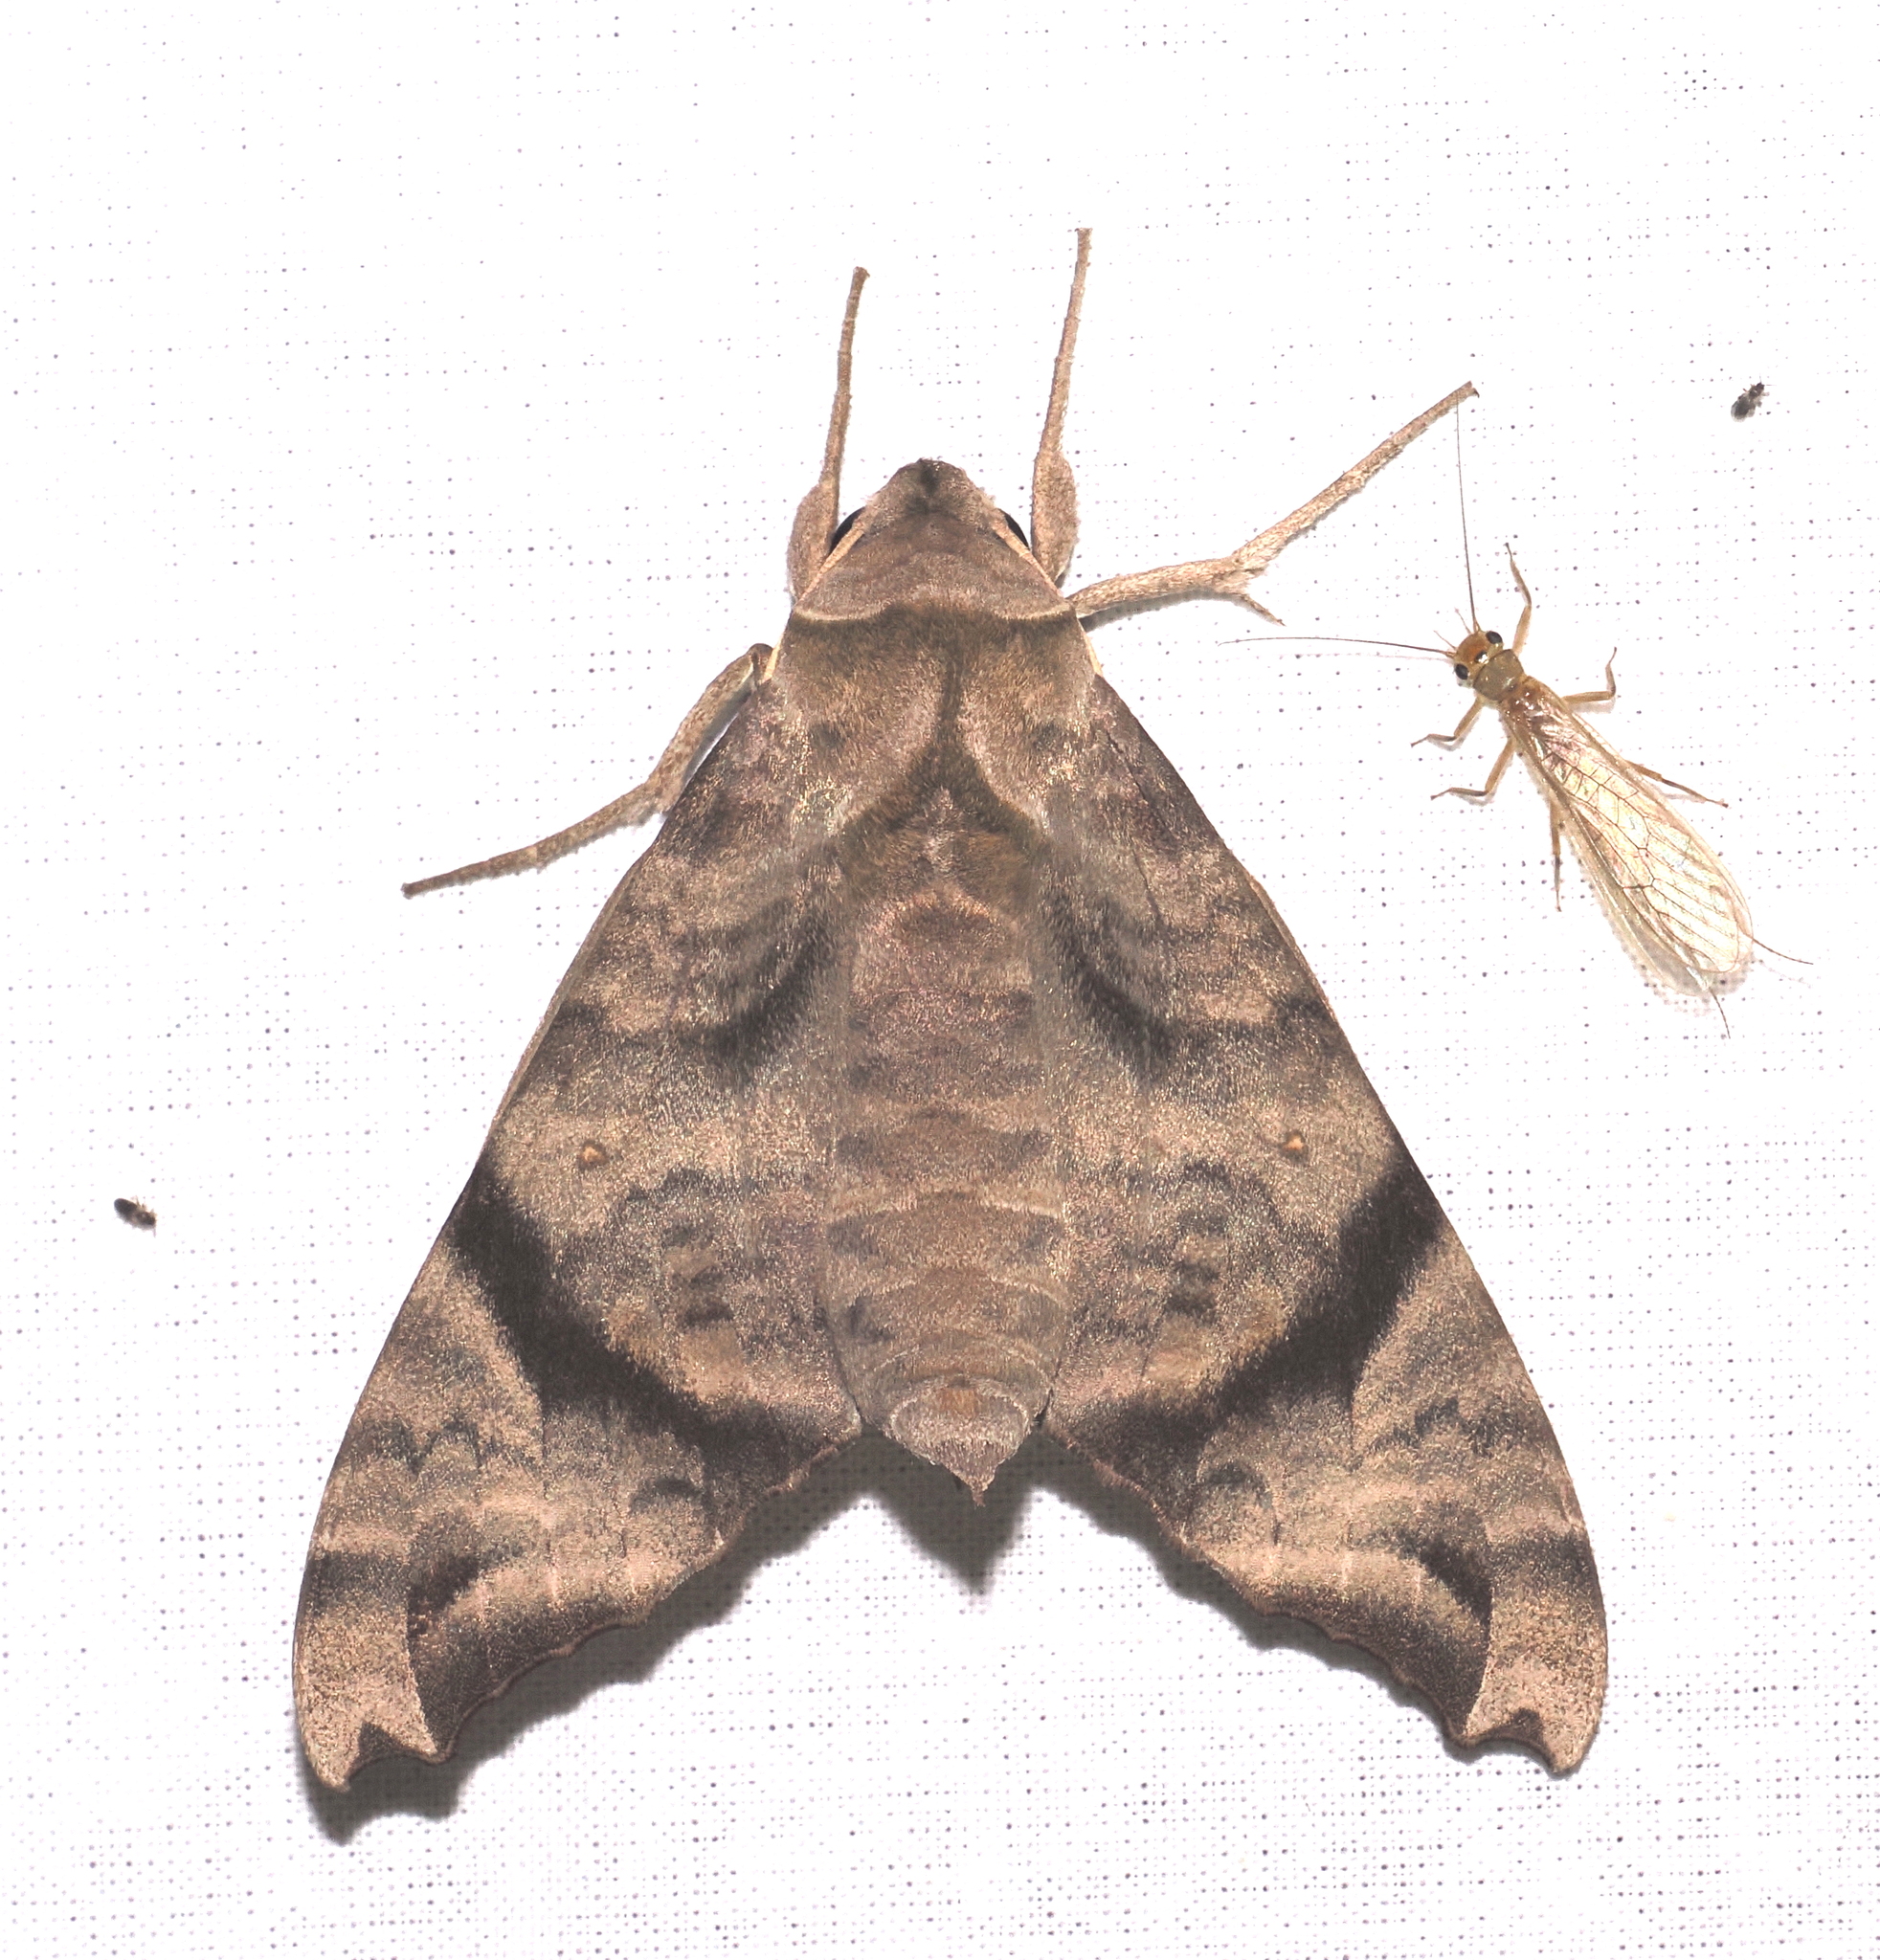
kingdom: Animalia
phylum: Arthropoda
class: Insecta
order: Lepidoptera
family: Sphingidae
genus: Acosmeryx
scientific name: Acosmeryx omissa
